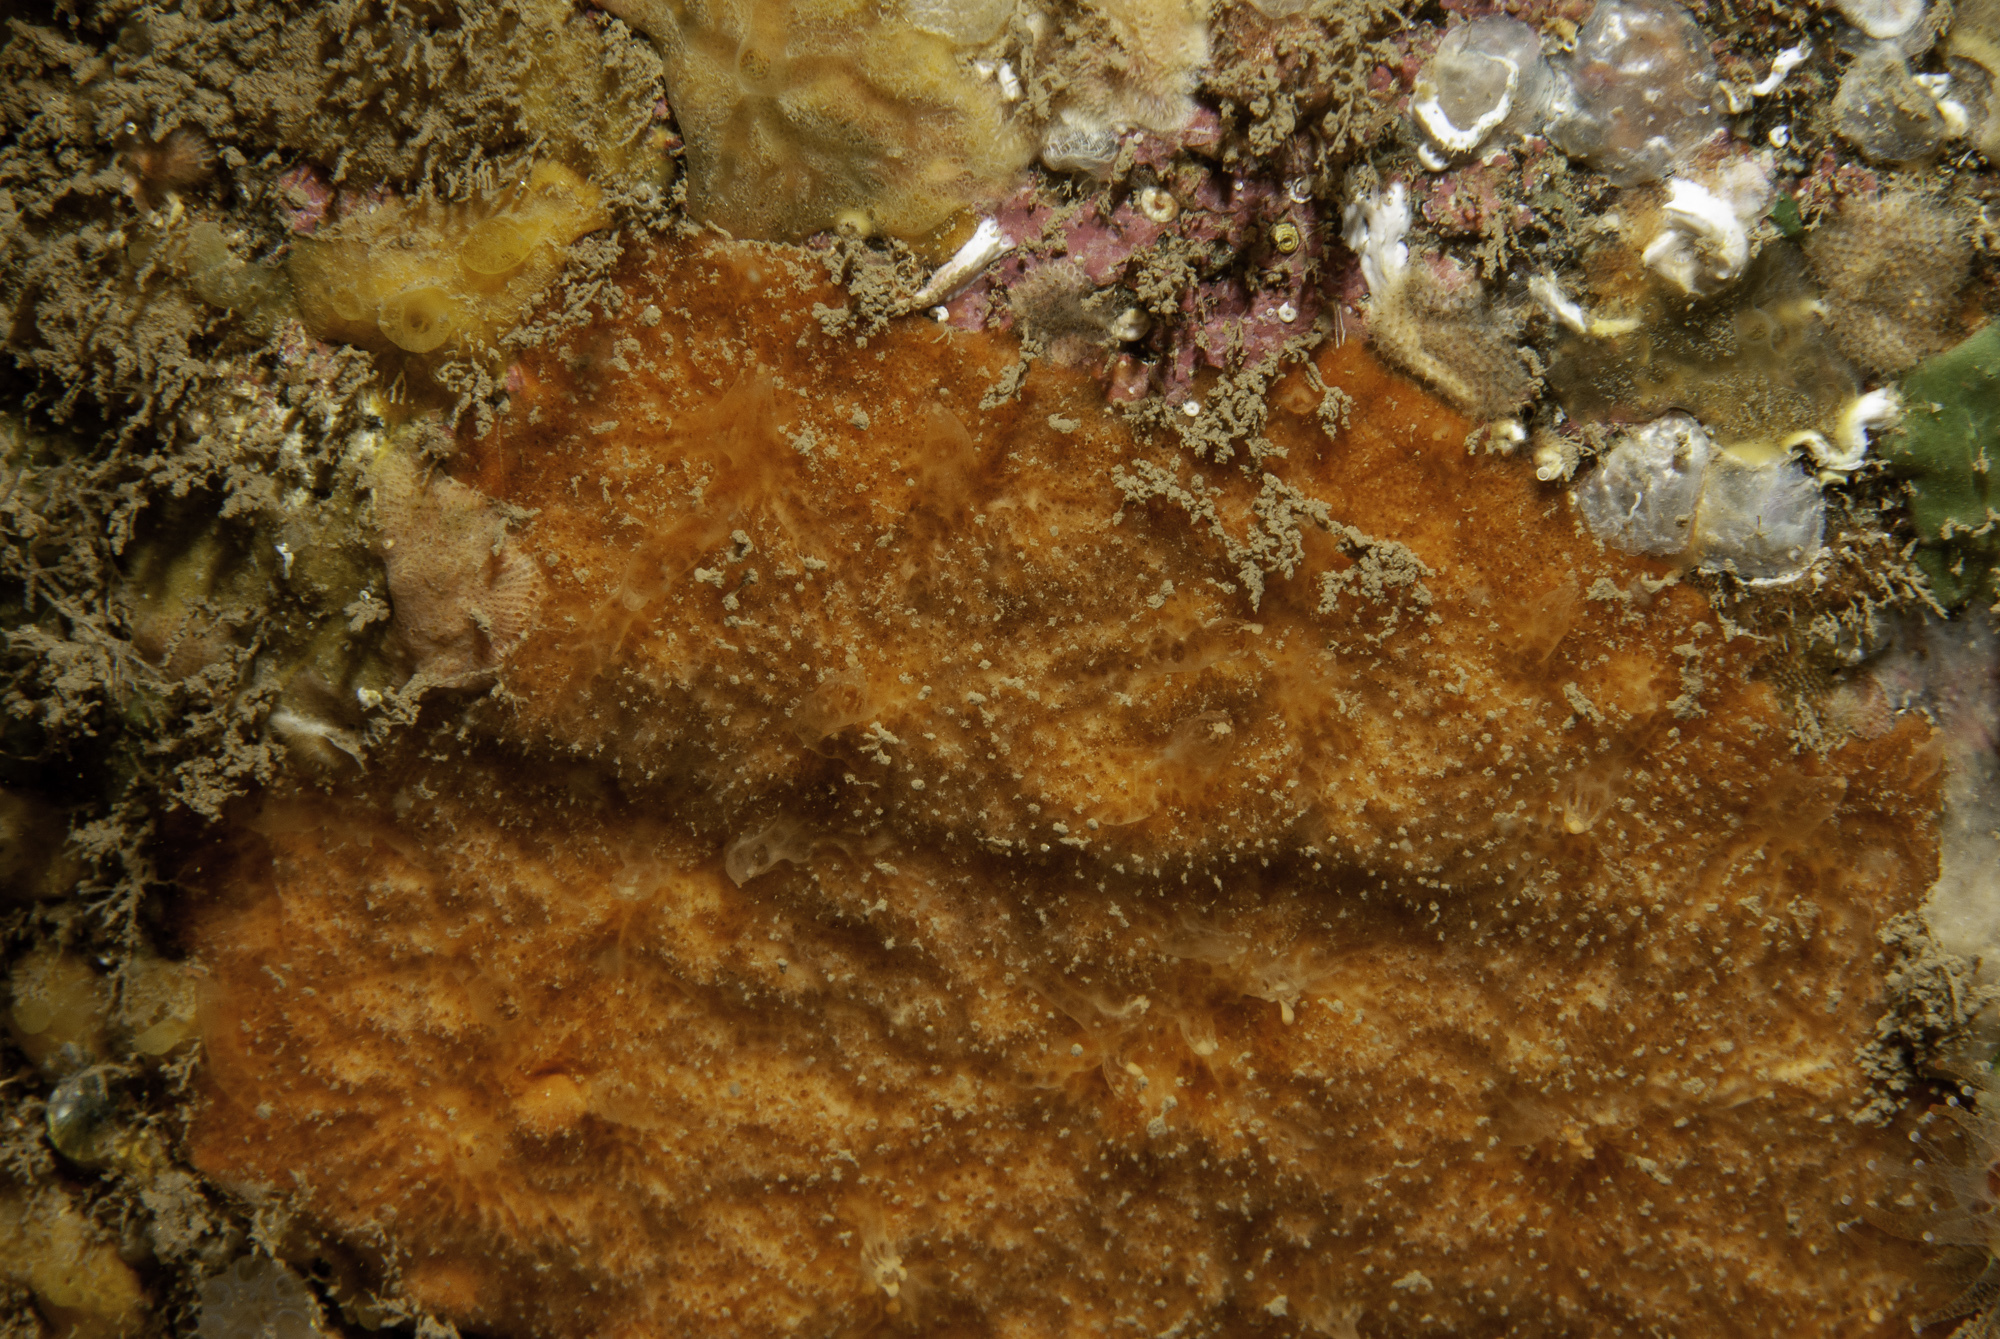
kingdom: Animalia
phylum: Porifera
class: Demospongiae
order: Axinellida
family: Raspailiidae
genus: Hymeraphia
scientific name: Hymeraphia breeni
